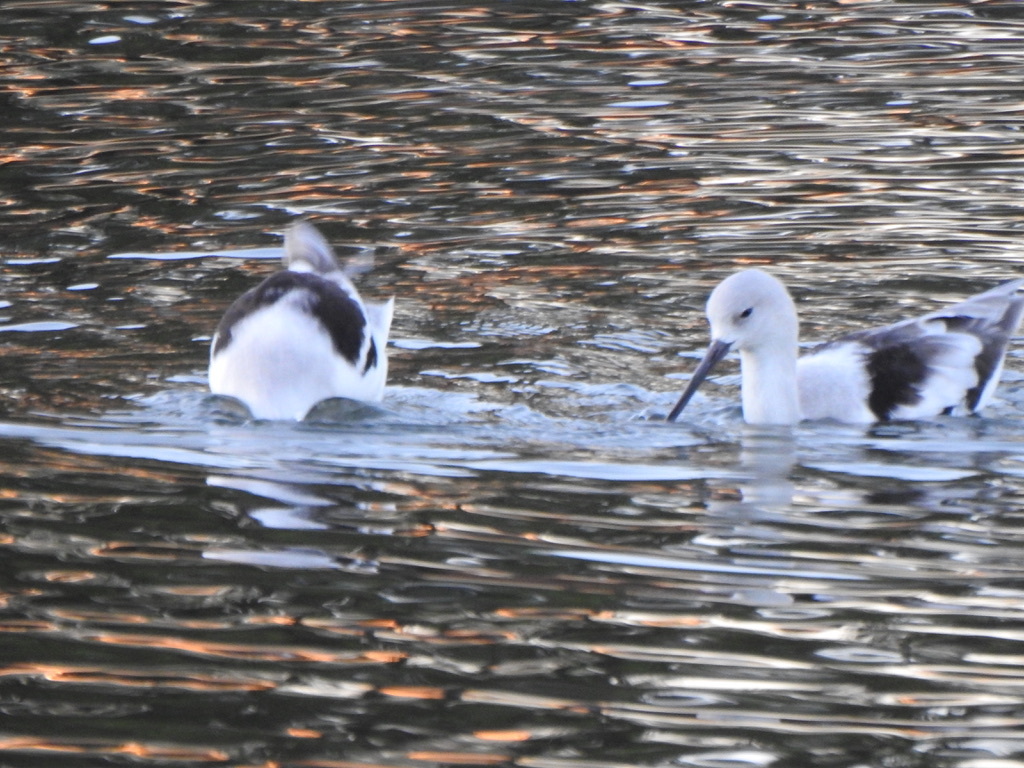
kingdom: Animalia
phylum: Chordata
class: Aves
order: Charadriiformes
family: Recurvirostridae
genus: Recurvirostra
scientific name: Recurvirostra americana
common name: American avocet
